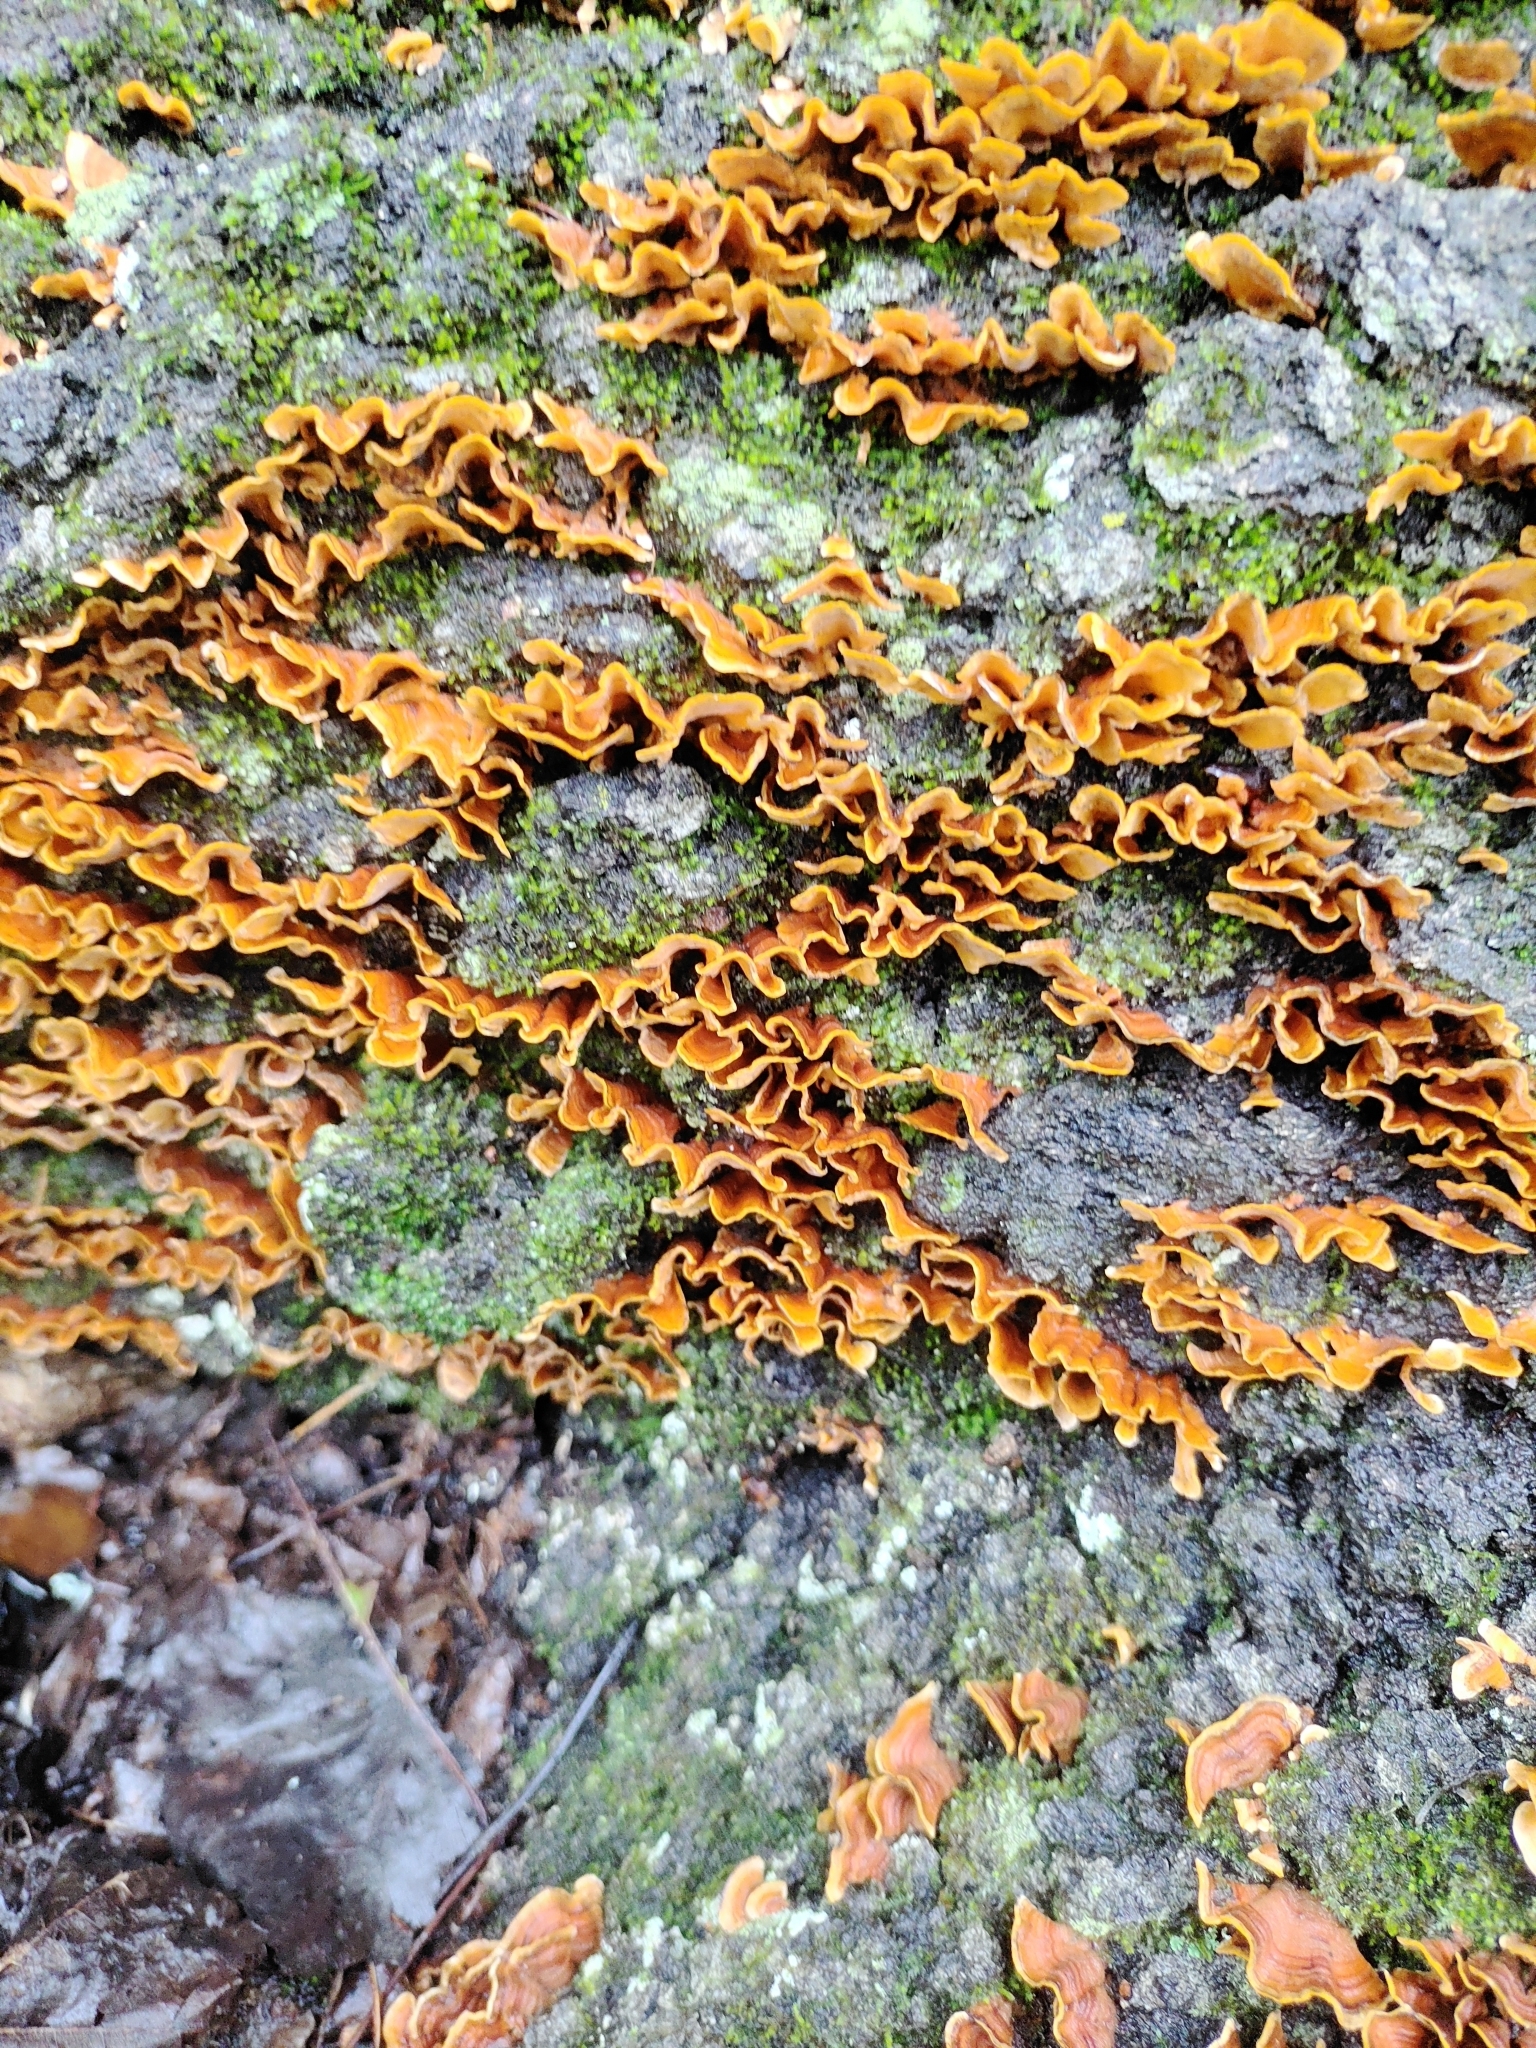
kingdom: Fungi
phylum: Basidiomycota
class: Agaricomycetes
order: Russulales
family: Stereaceae
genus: Stereum
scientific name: Stereum complicatum
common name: Crowded parchment
